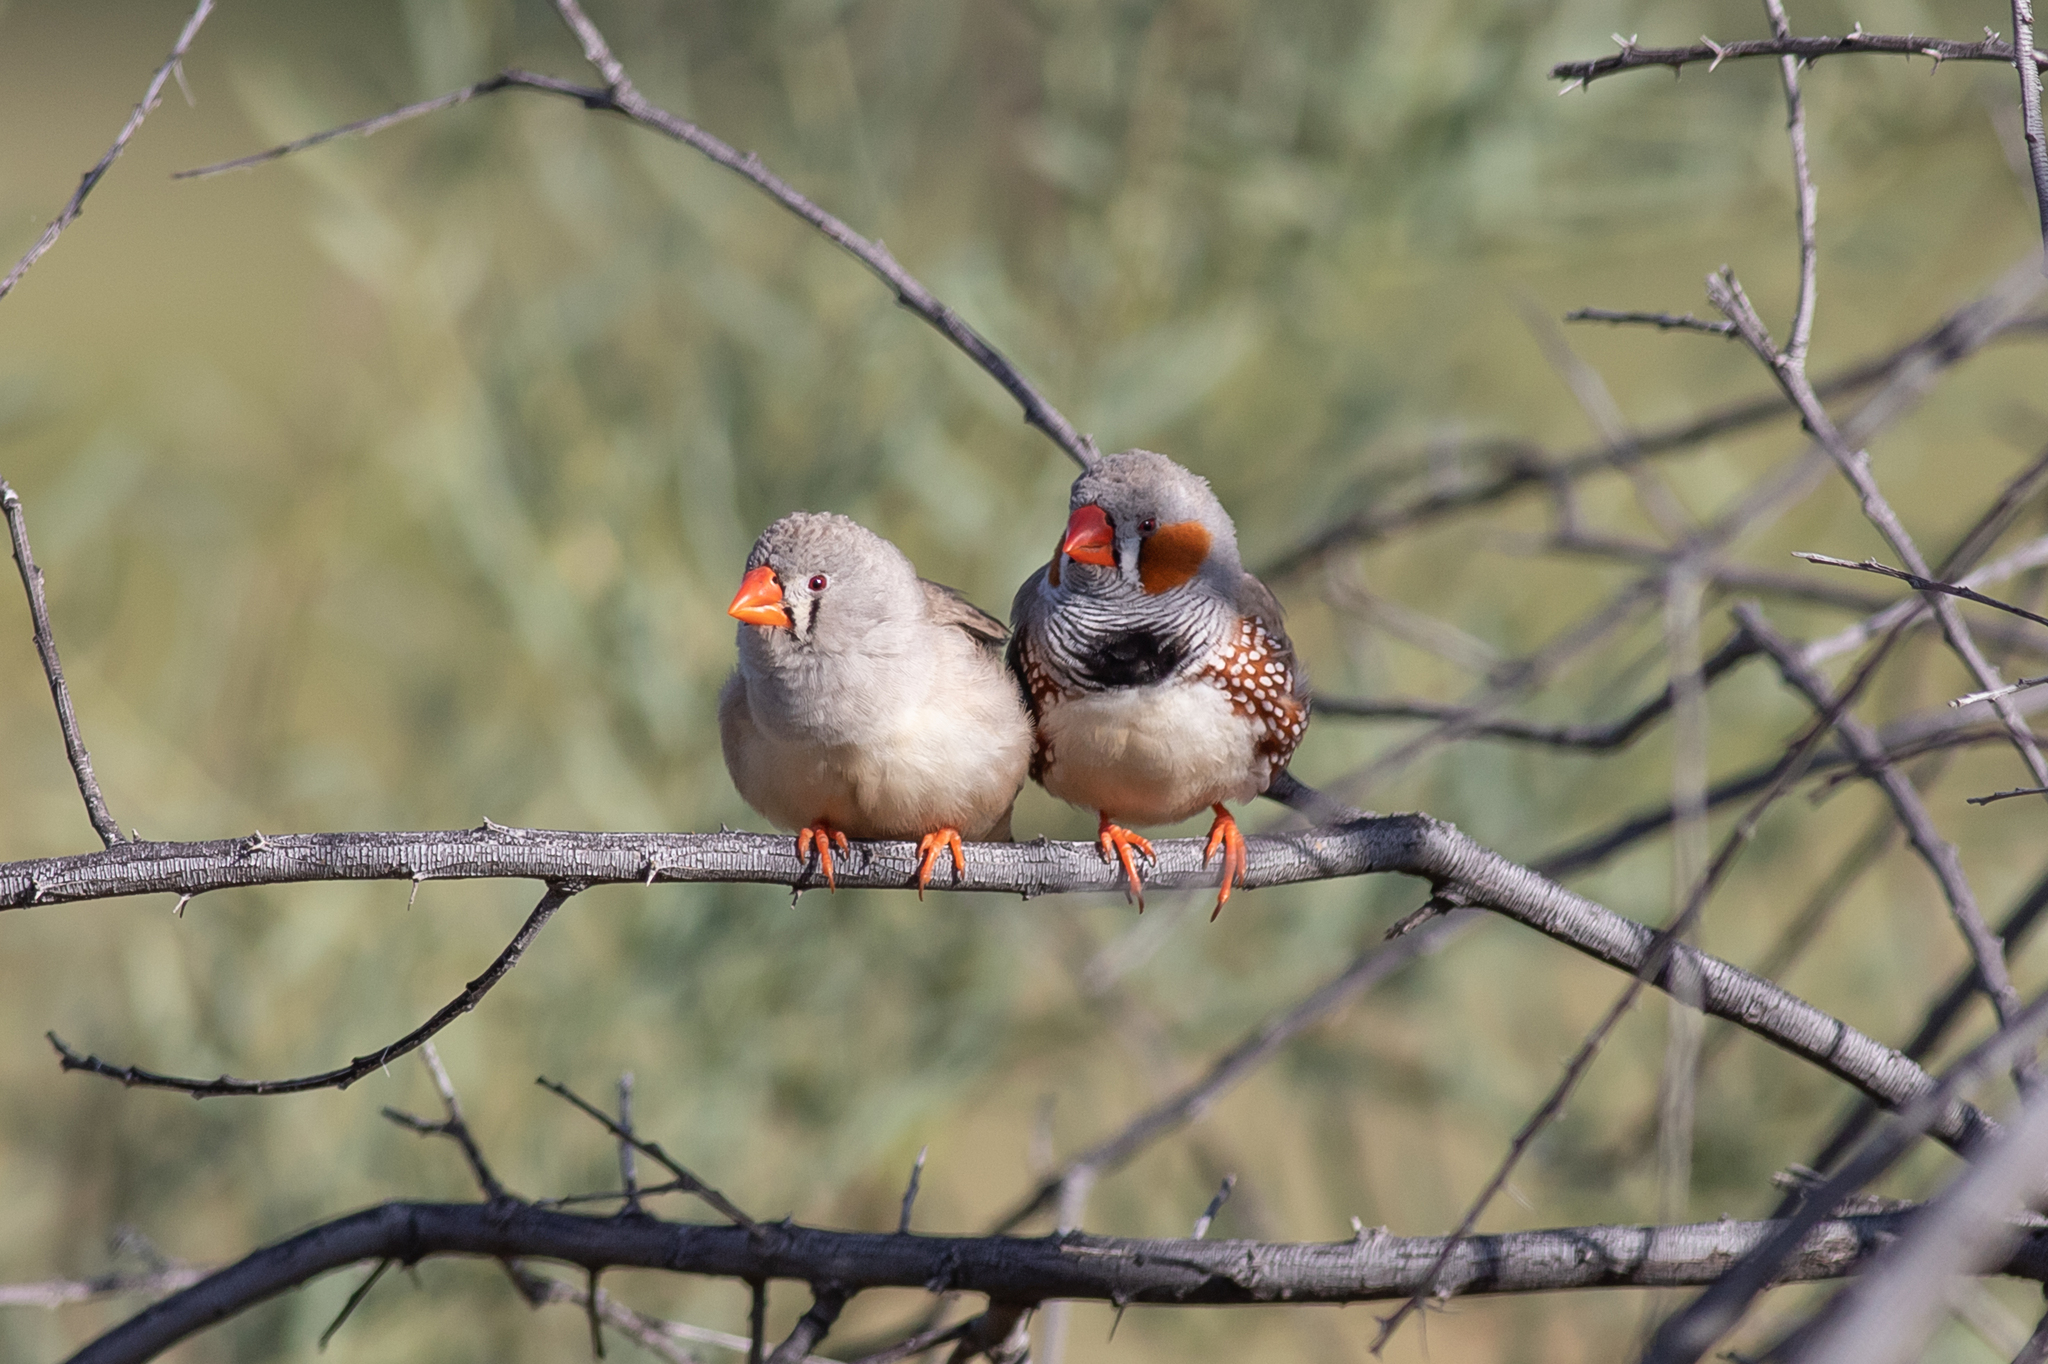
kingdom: Animalia
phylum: Chordata
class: Aves
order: Passeriformes
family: Estrildidae
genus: Taeniopygia
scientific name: Taeniopygia guttata
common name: Zebra finch
